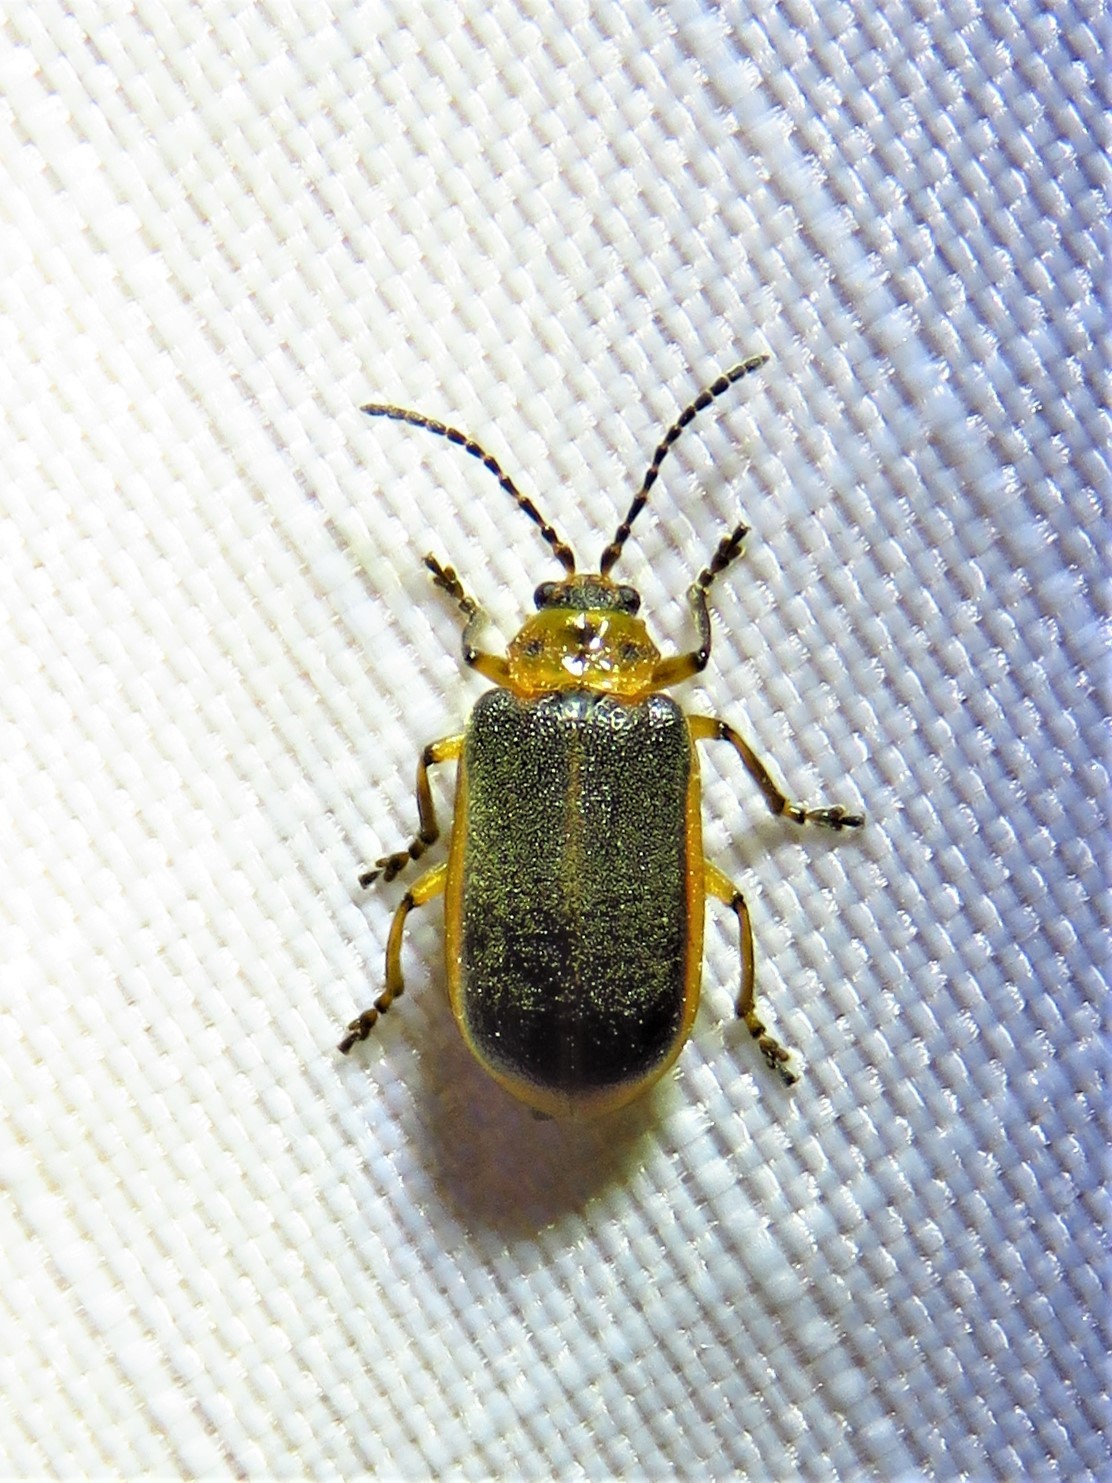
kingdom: Animalia
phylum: Arthropoda
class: Insecta
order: Coleoptera
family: Chrysomelidae
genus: Galerucella
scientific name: Galerucella nymphaeae
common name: Leaf beetle
